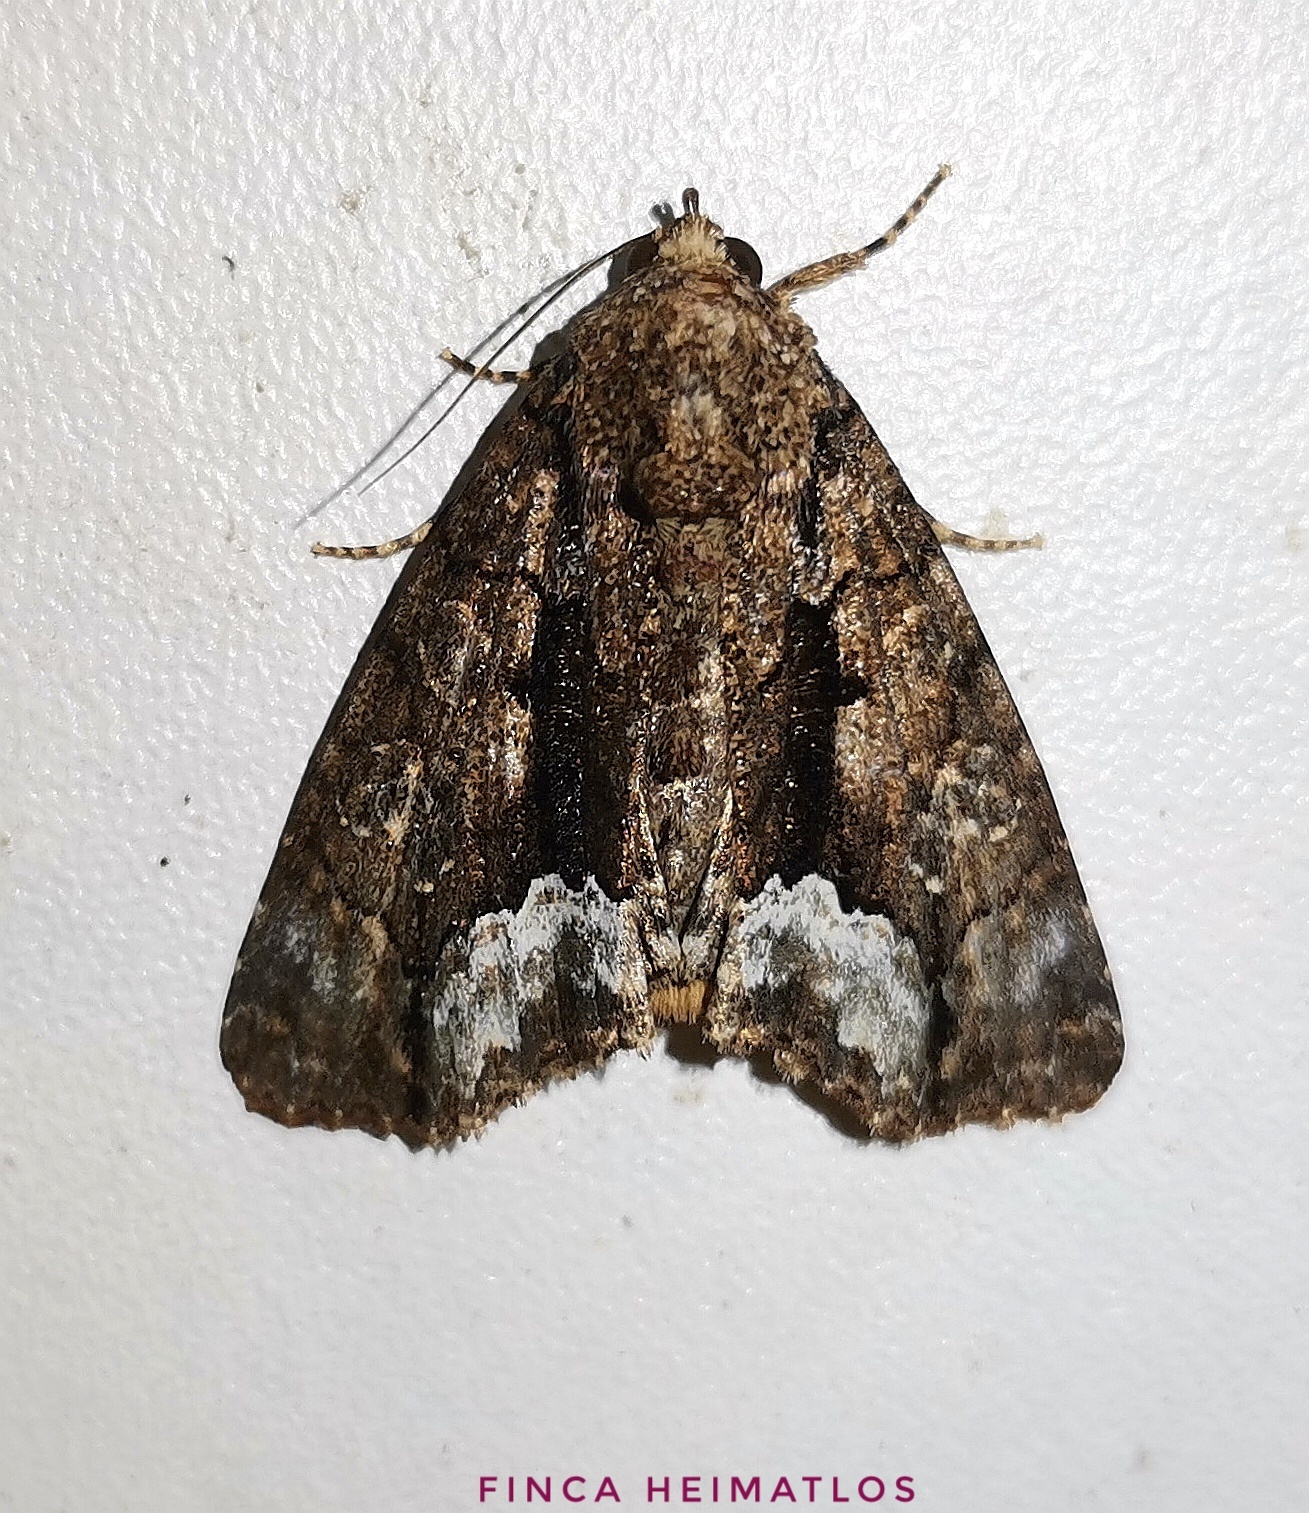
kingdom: Animalia
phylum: Arthropoda
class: Insecta
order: Lepidoptera
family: Noctuidae
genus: Cropia
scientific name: Cropia connecta
